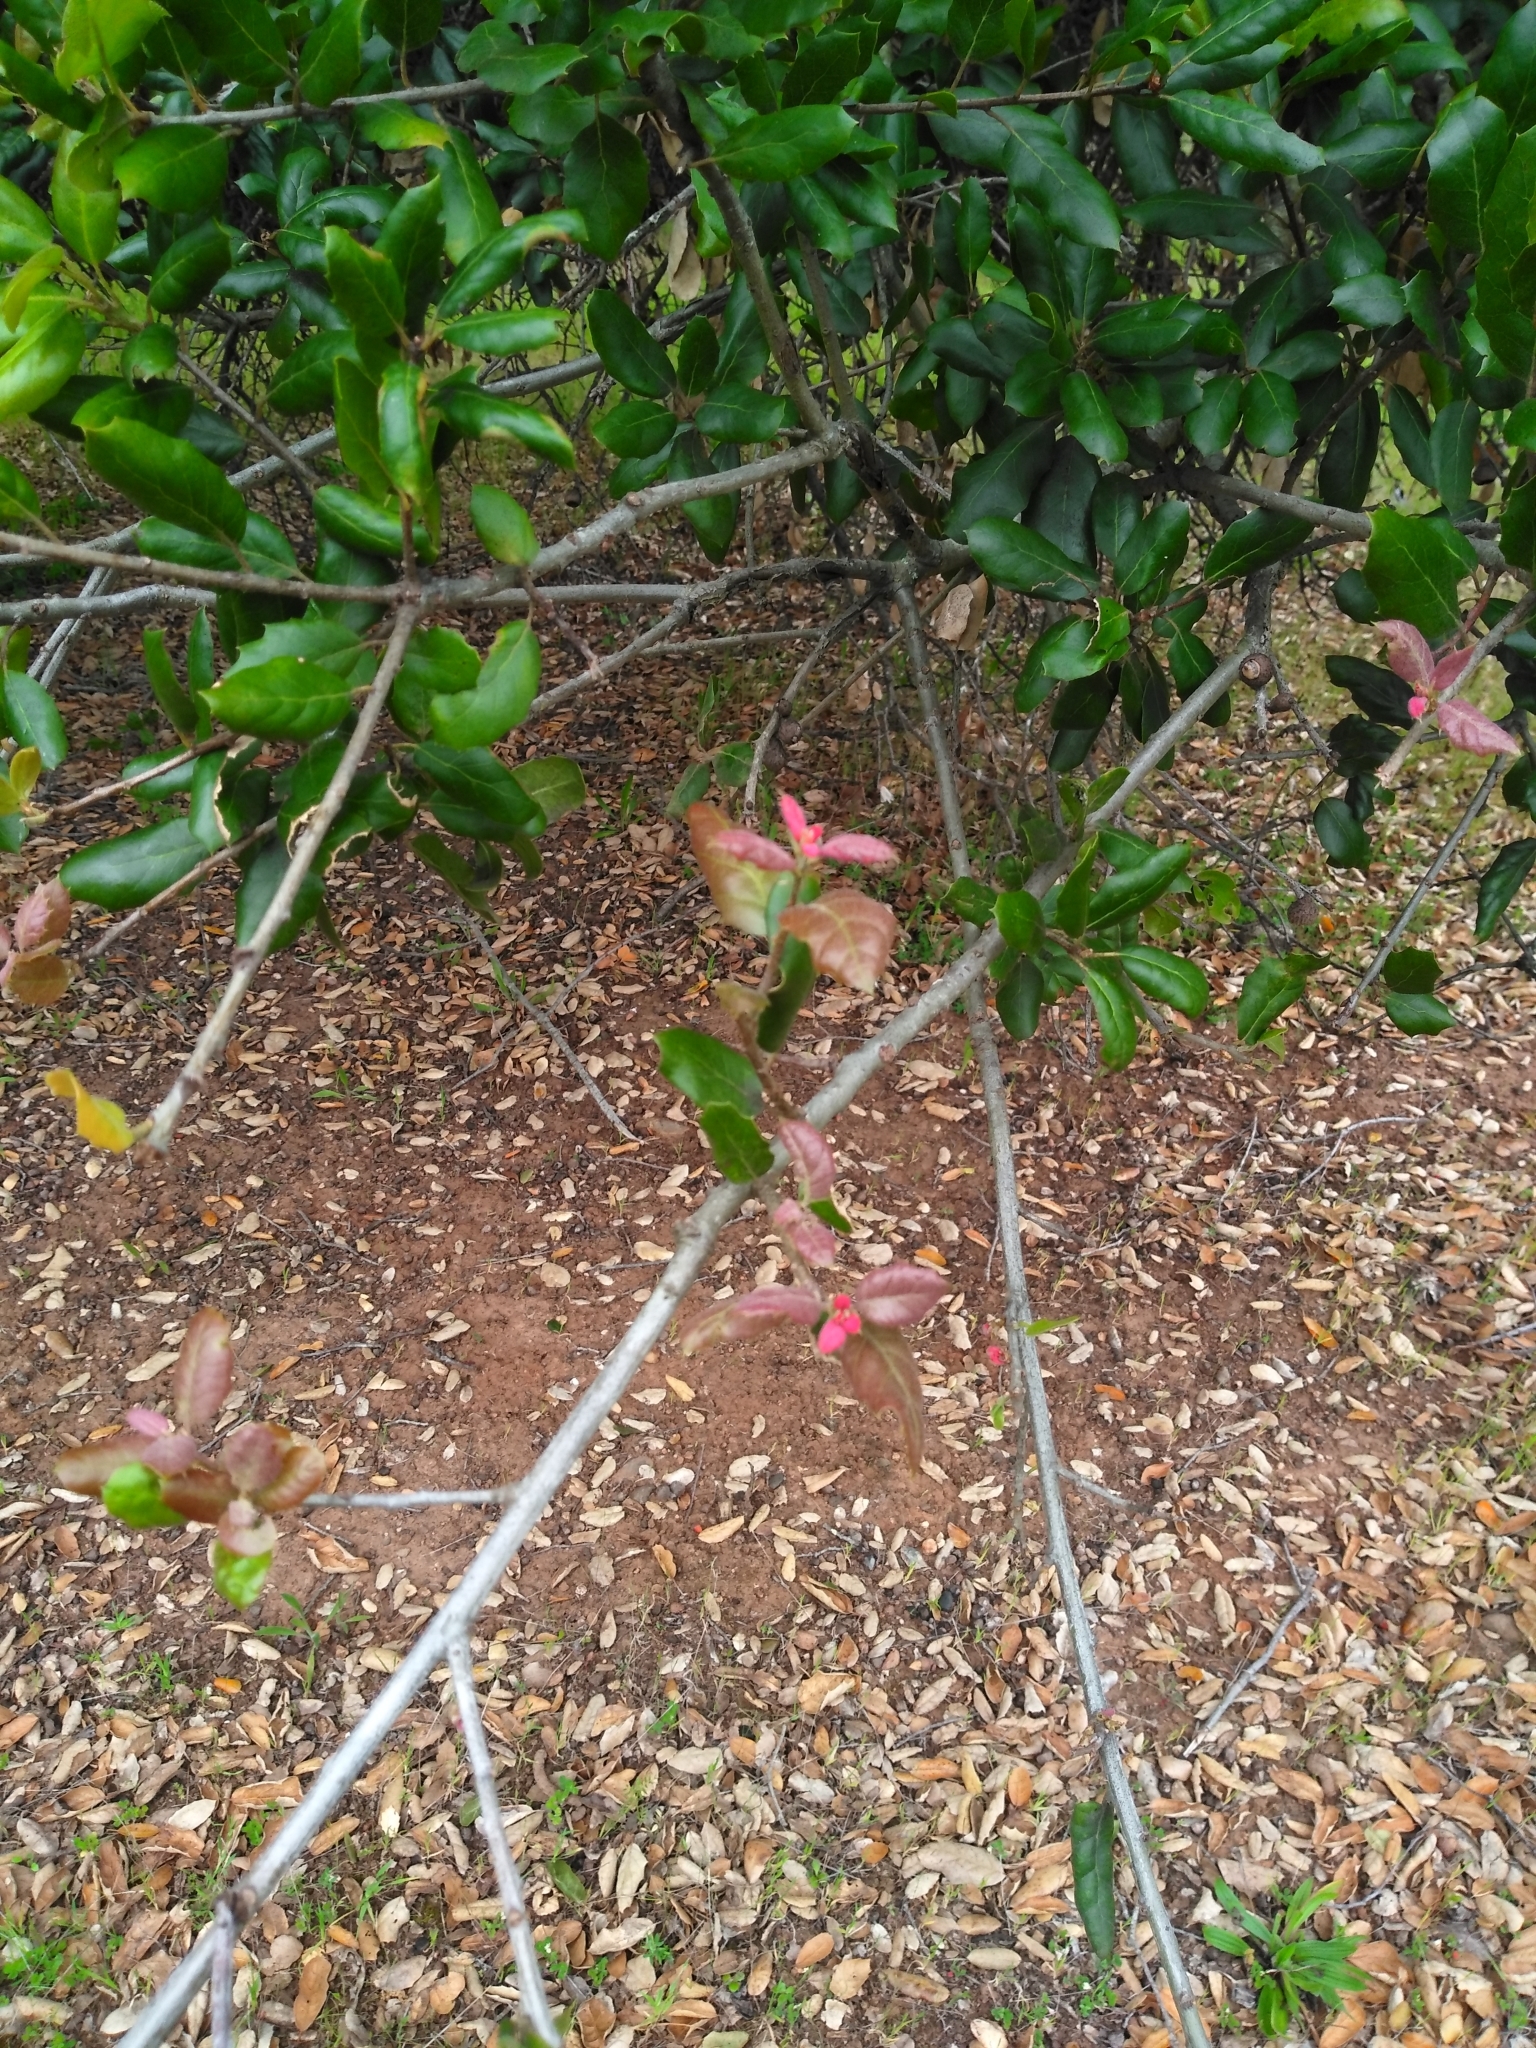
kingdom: Plantae
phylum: Tracheophyta
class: Magnoliopsida
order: Fagales
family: Fagaceae
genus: Quercus
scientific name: Quercus agrifolia
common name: California live oak
